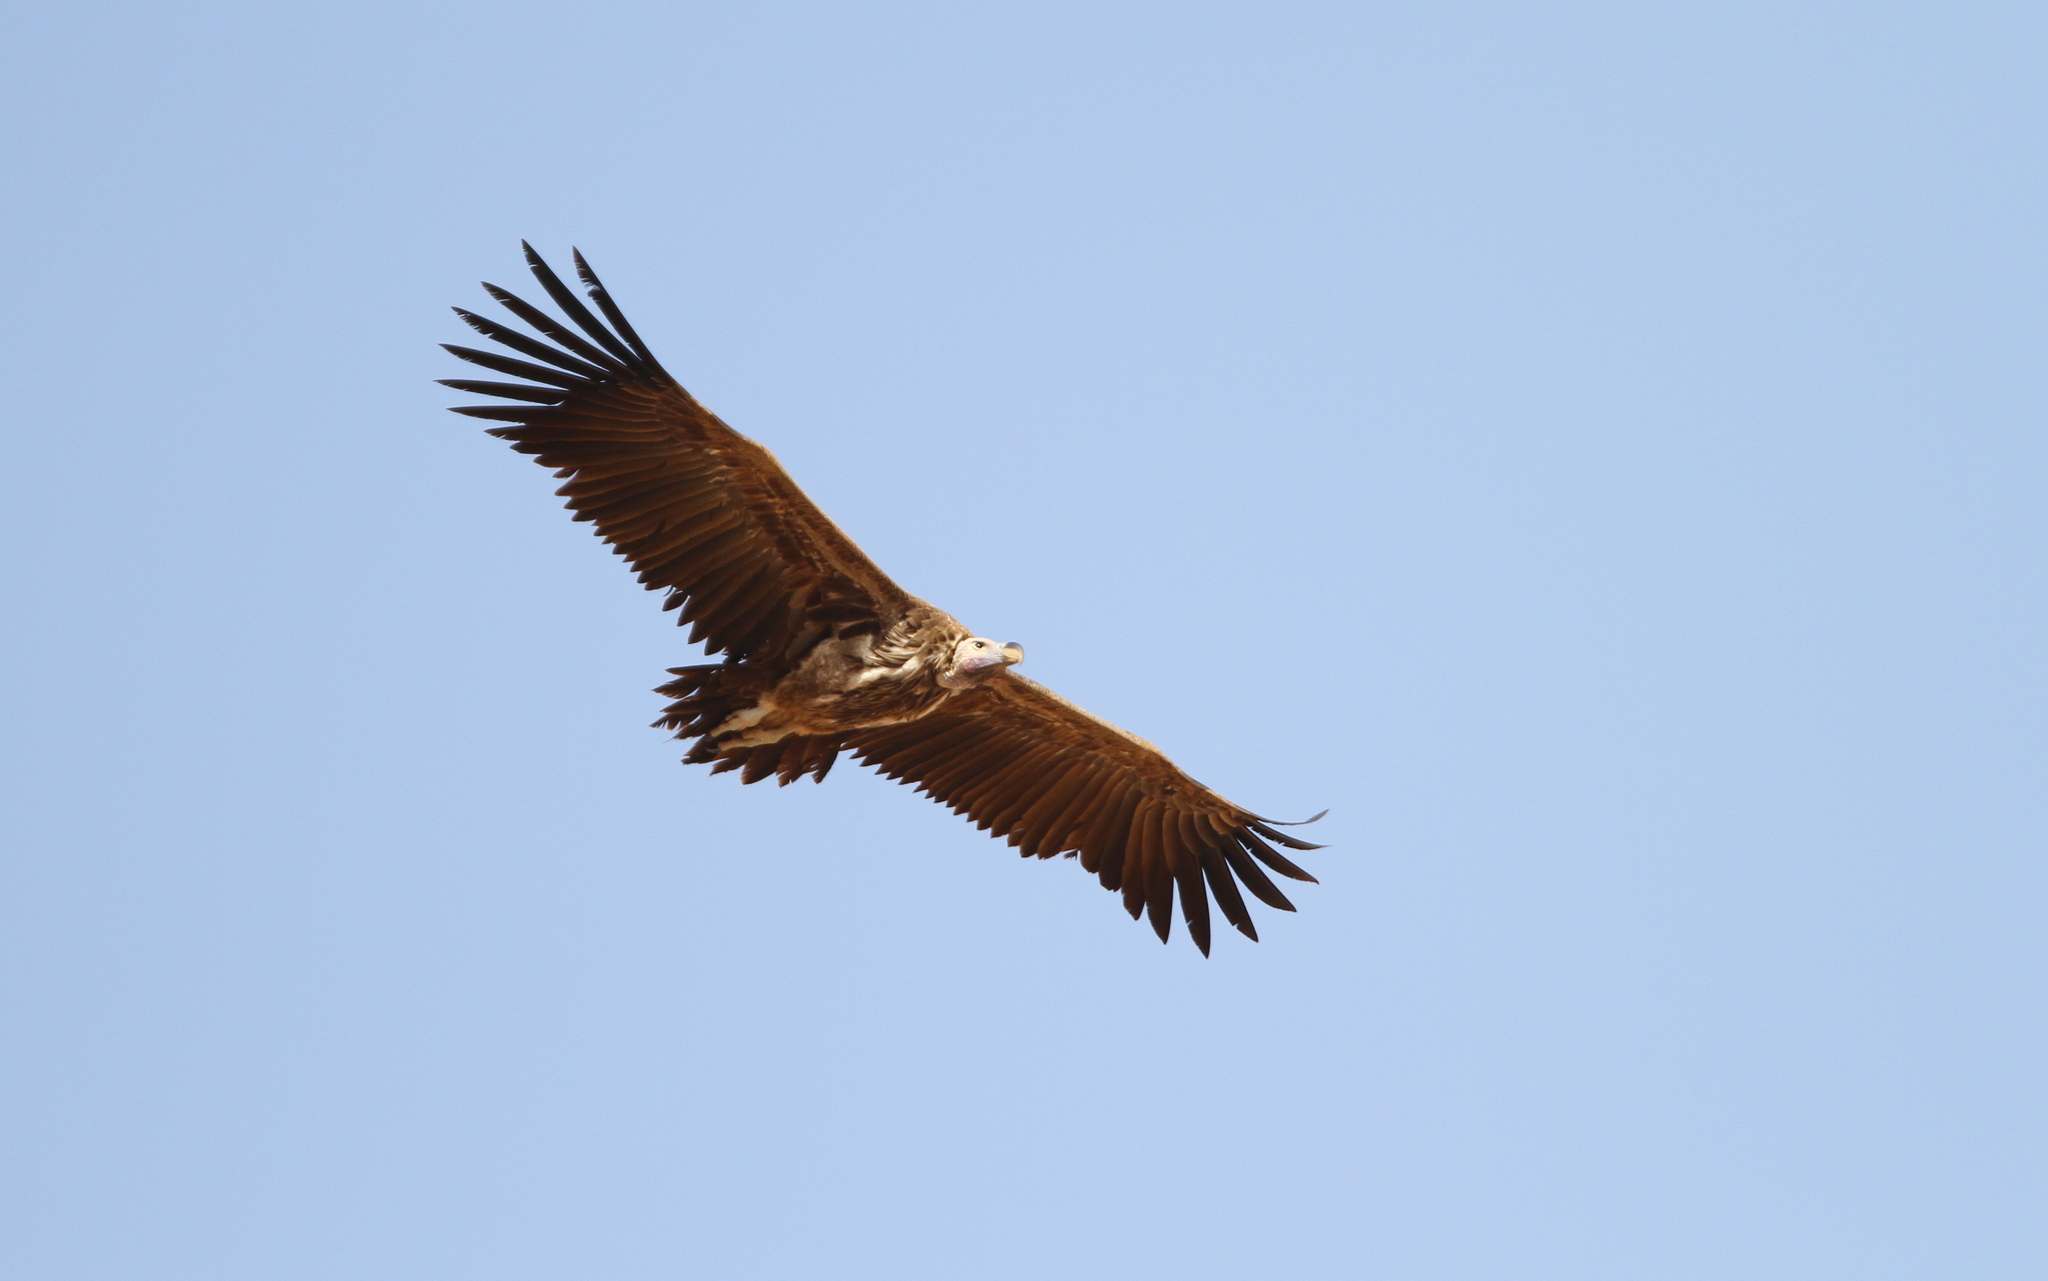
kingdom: Animalia
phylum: Chordata
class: Aves
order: Accipitriformes
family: Accipitridae
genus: Torgos
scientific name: Torgos tracheliotos
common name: Lappet-faced vulture
